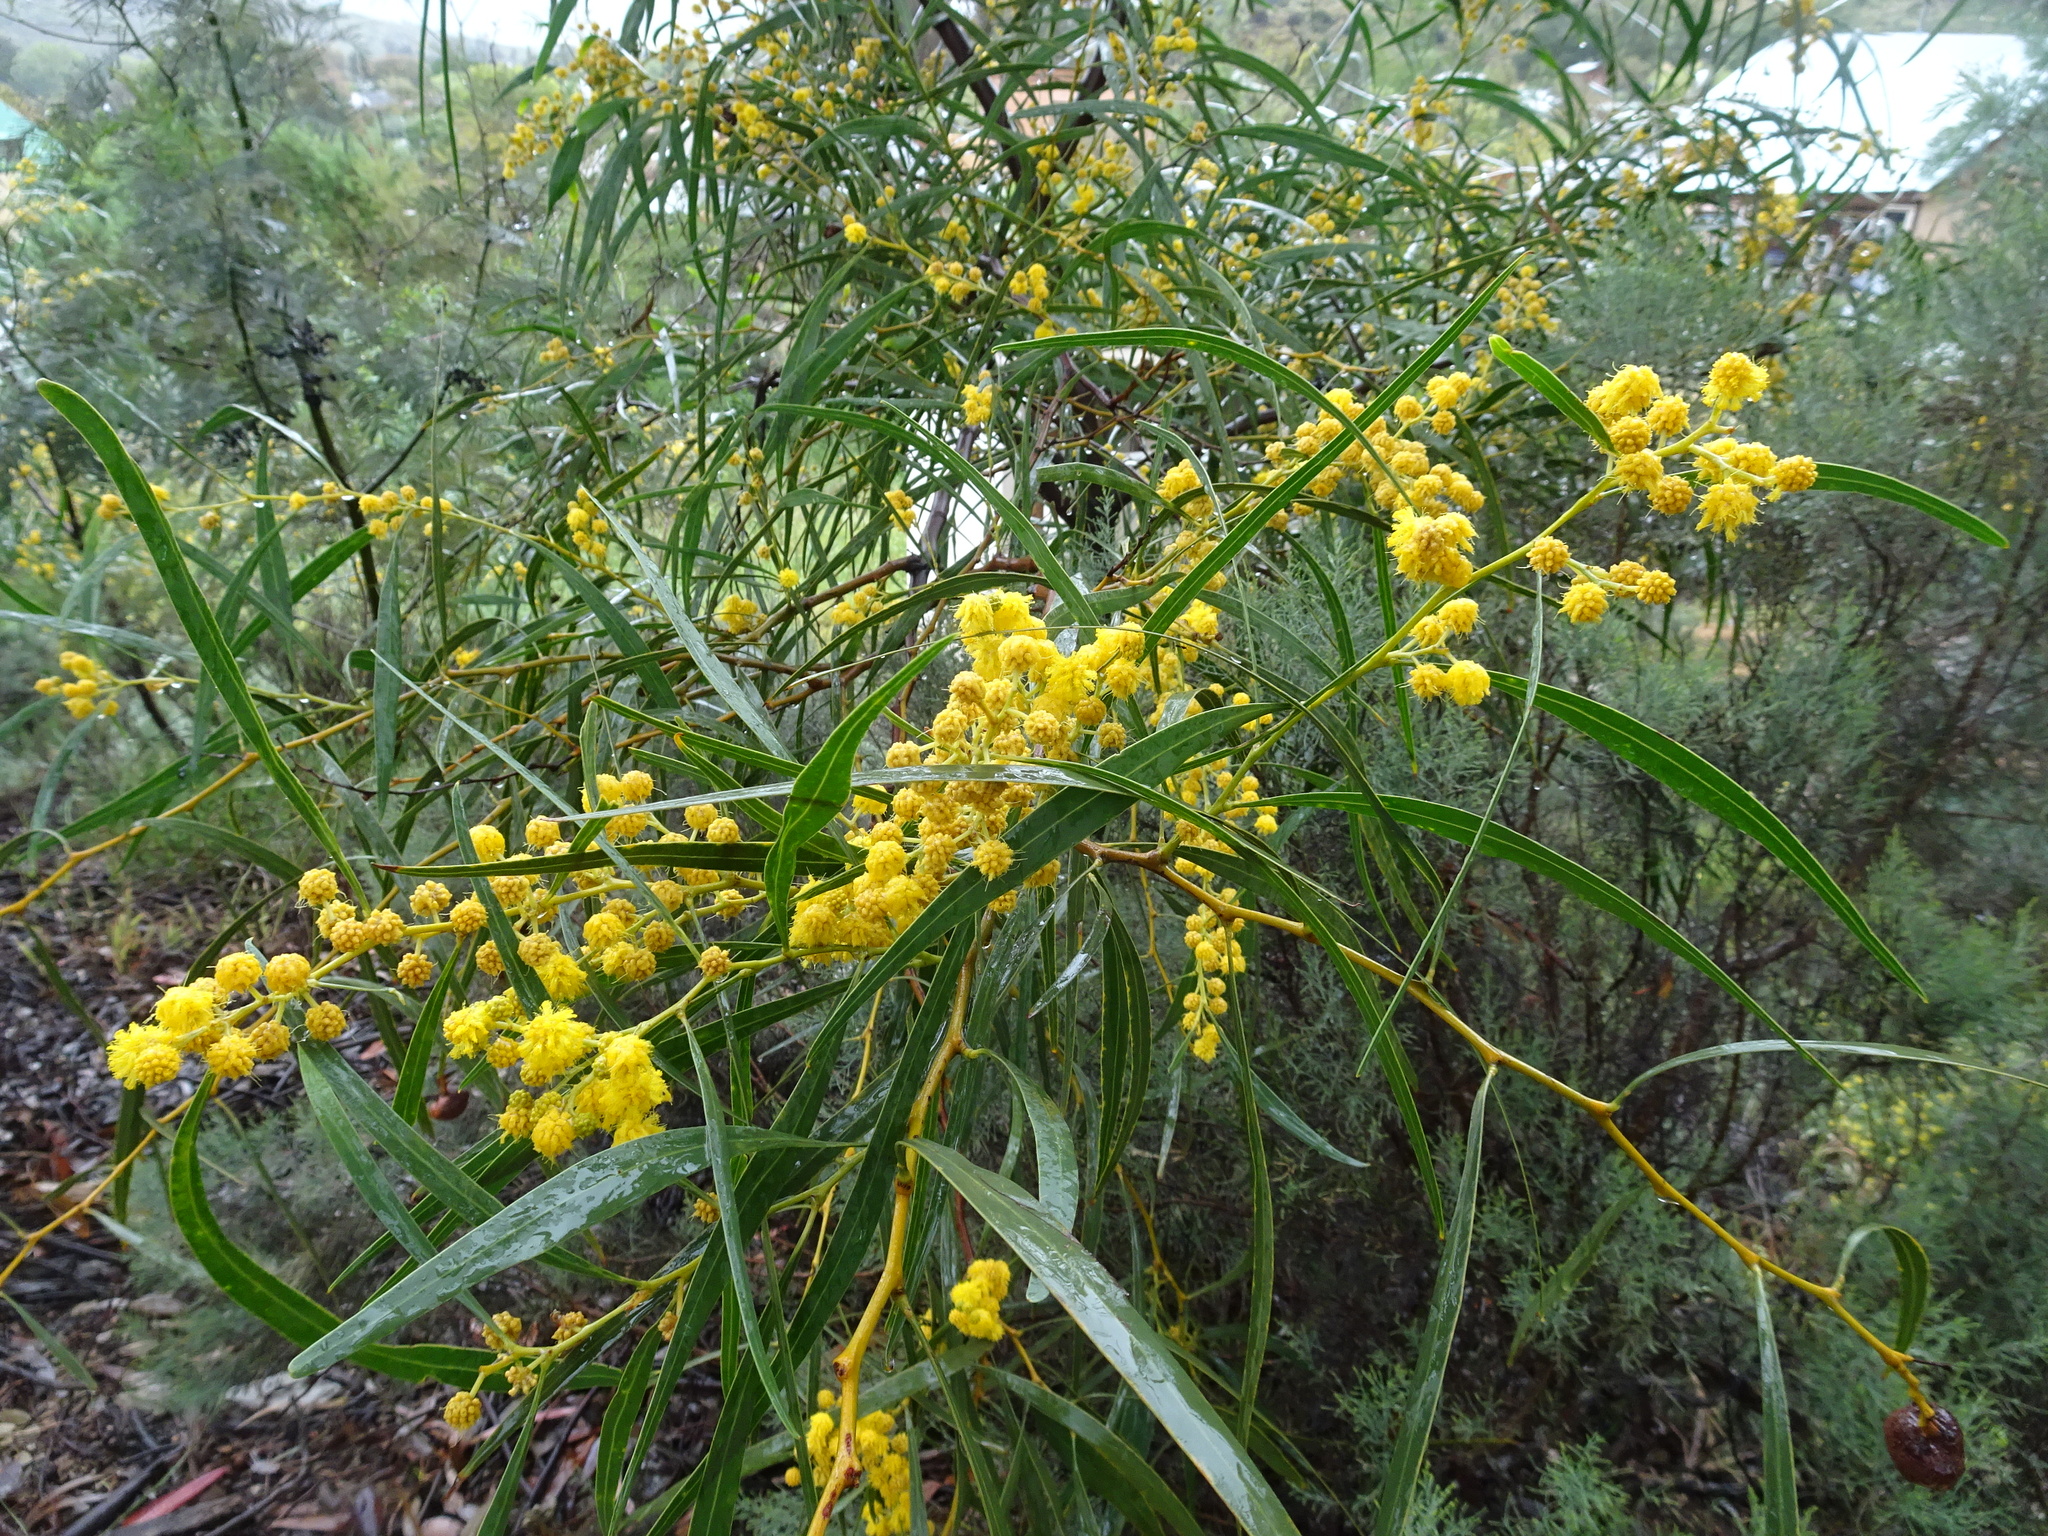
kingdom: Plantae
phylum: Tracheophyta
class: Magnoliopsida
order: Fabales
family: Fabaceae
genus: Acacia
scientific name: Acacia saligna
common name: Orange wattle
